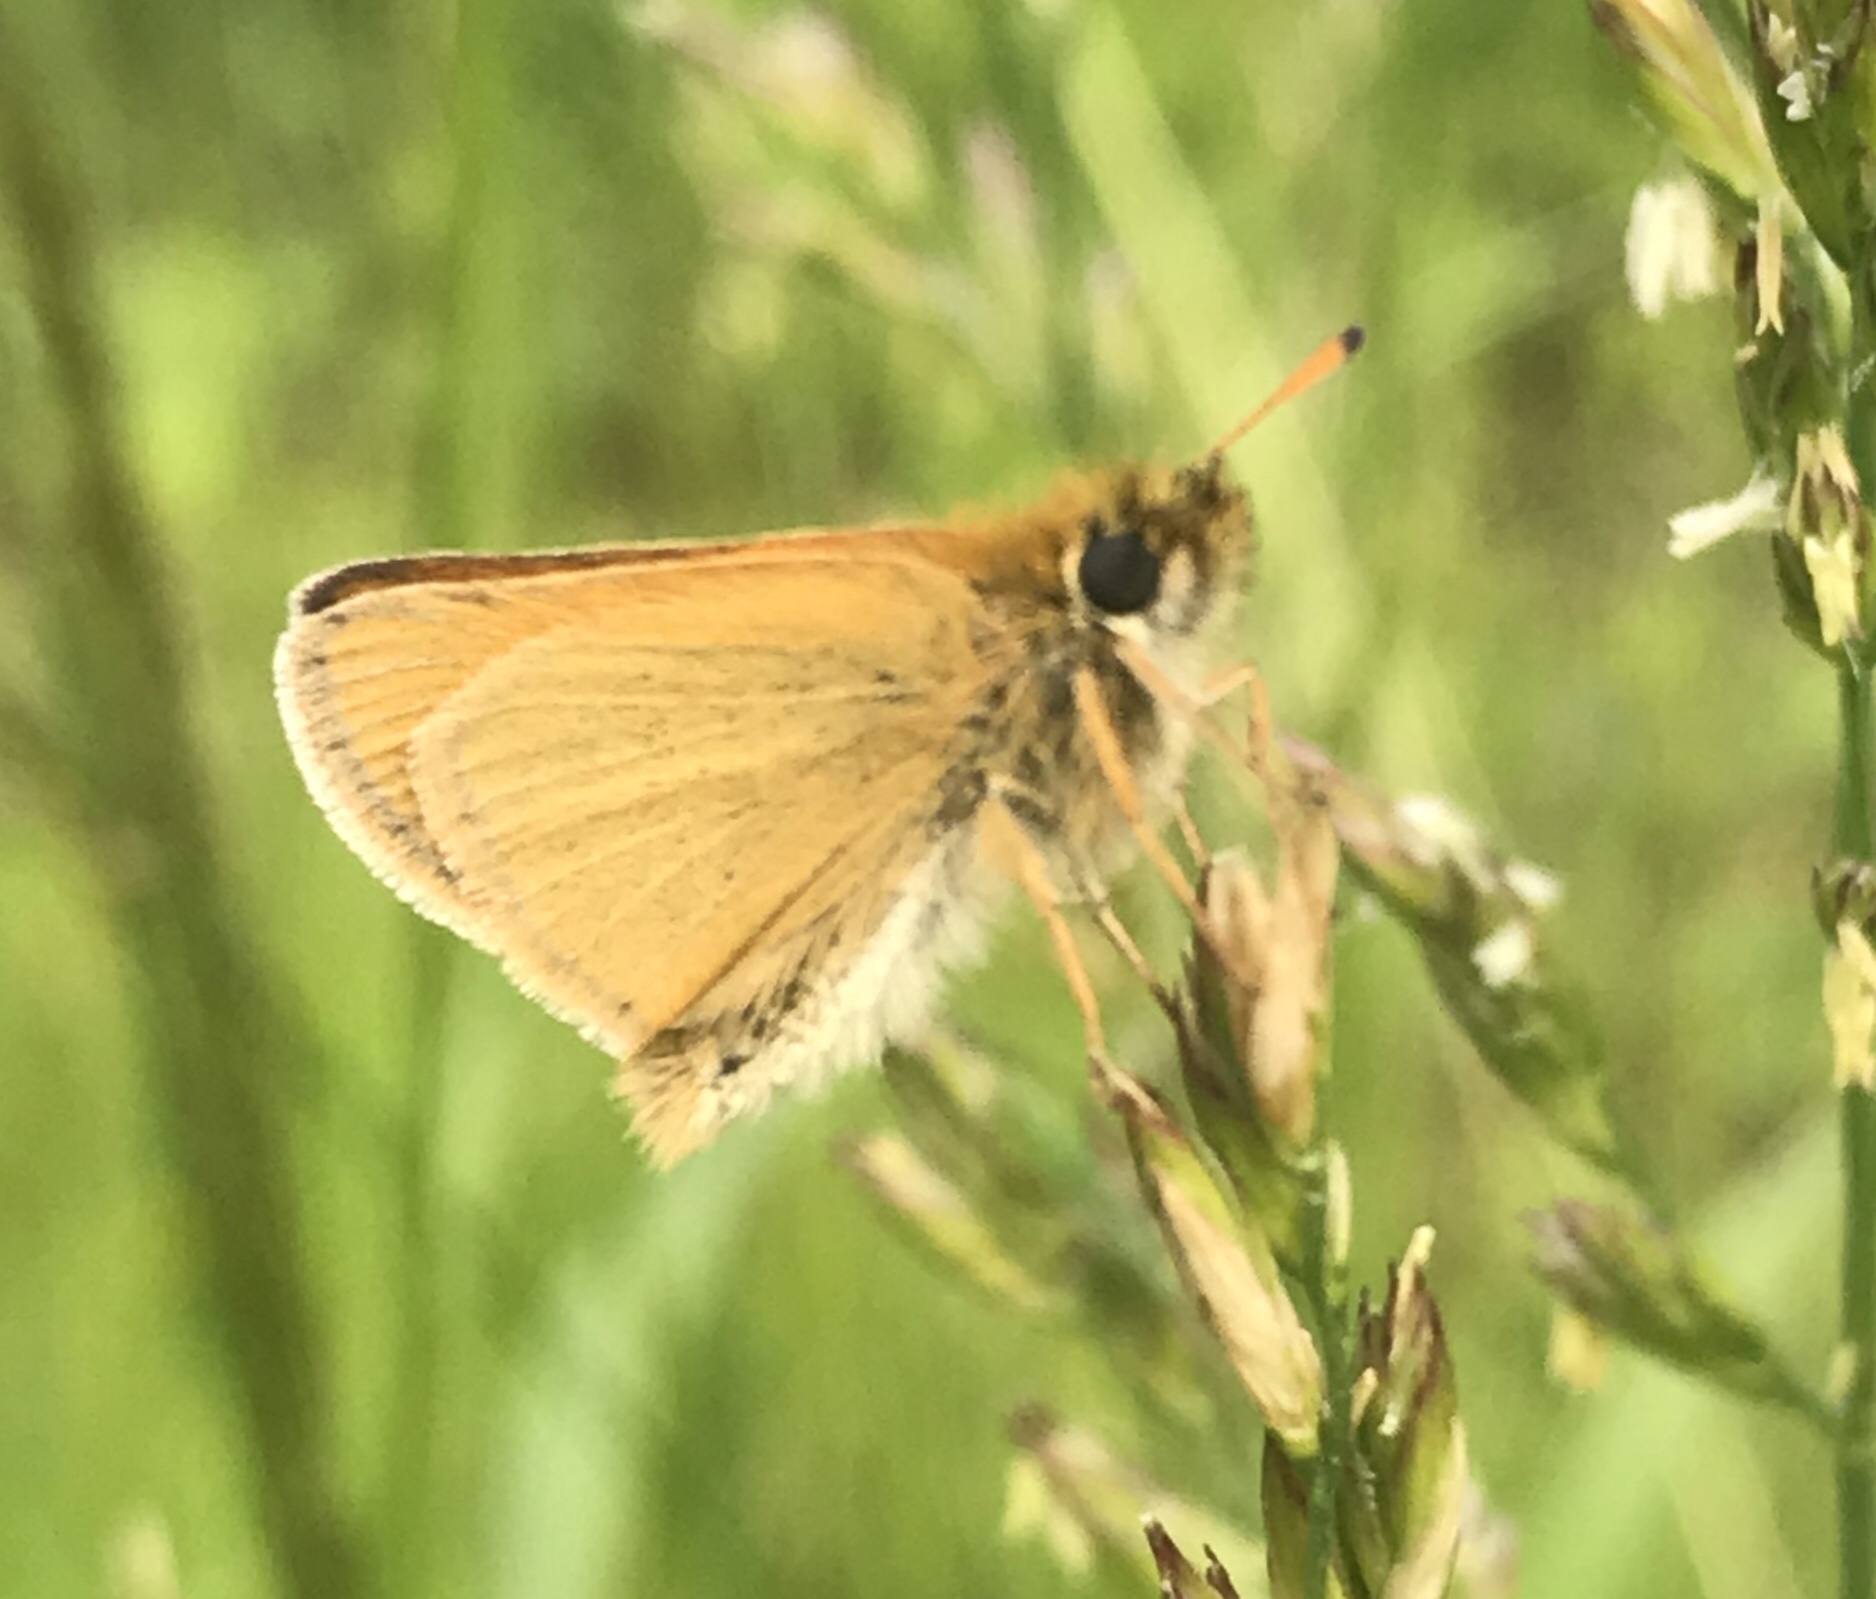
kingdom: Animalia
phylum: Arthropoda
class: Insecta
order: Lepidoptera
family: Hesperiidae
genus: Thymelicus
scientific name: Thymelicus lineola
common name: Essex skipper
